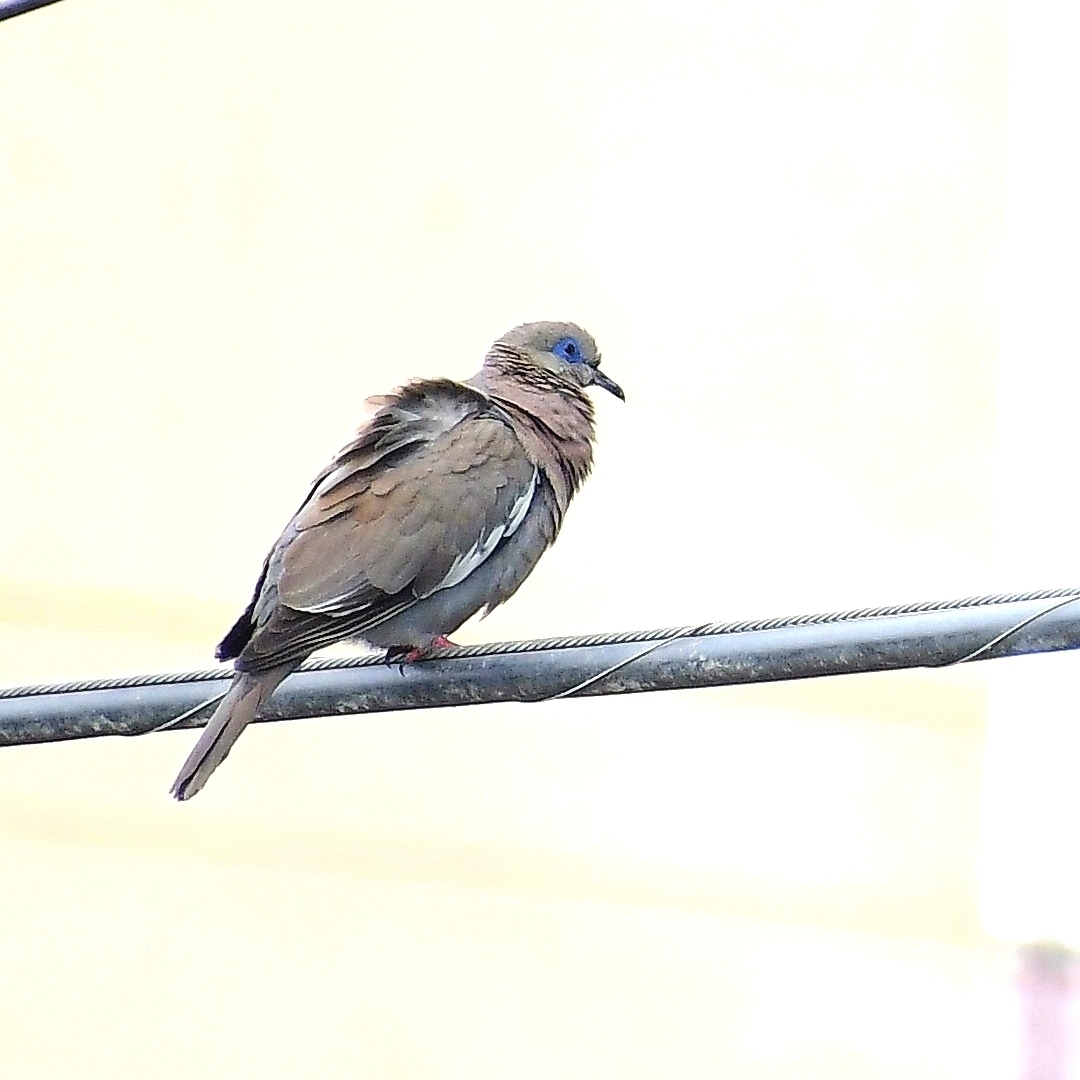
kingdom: Animalia
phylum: Chordata
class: Aves
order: Columbiformes
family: Columbidae
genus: Zenaida
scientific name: Zenaida meloda
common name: West peruvian dove
